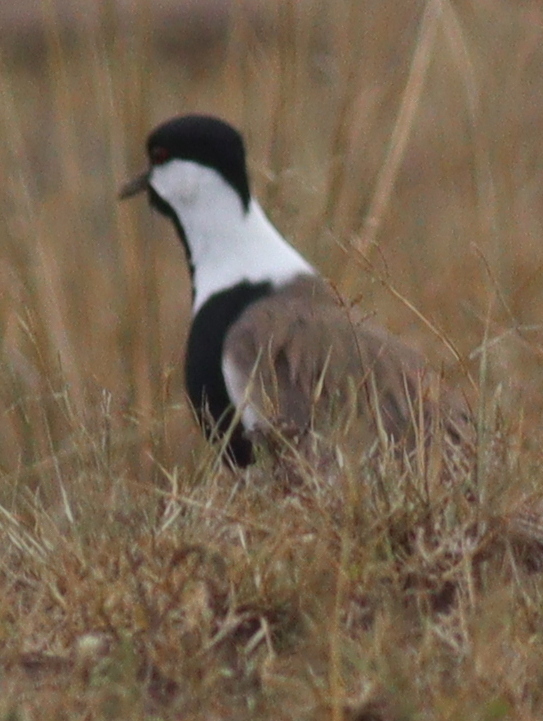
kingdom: Animalia
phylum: Chordata
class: Aves
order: Charadriiformes
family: Charadriidae
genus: Vanellus
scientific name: Vanellus spinosus
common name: Spur-winged lapwing
